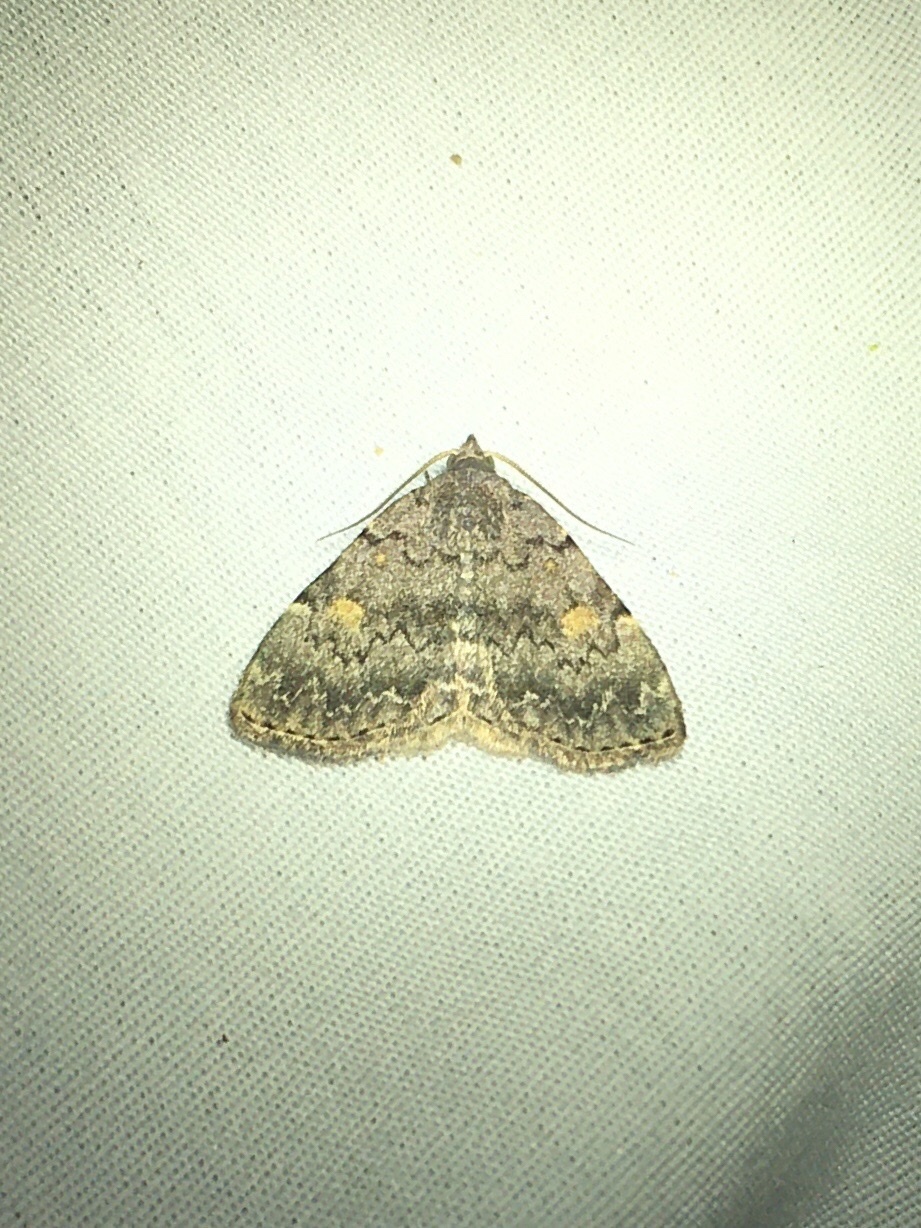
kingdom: Animalia
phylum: Arthropoda
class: Insecta
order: Lepidoptera
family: Erebidae
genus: Idia
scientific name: Idia aemula
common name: Common idia moth
